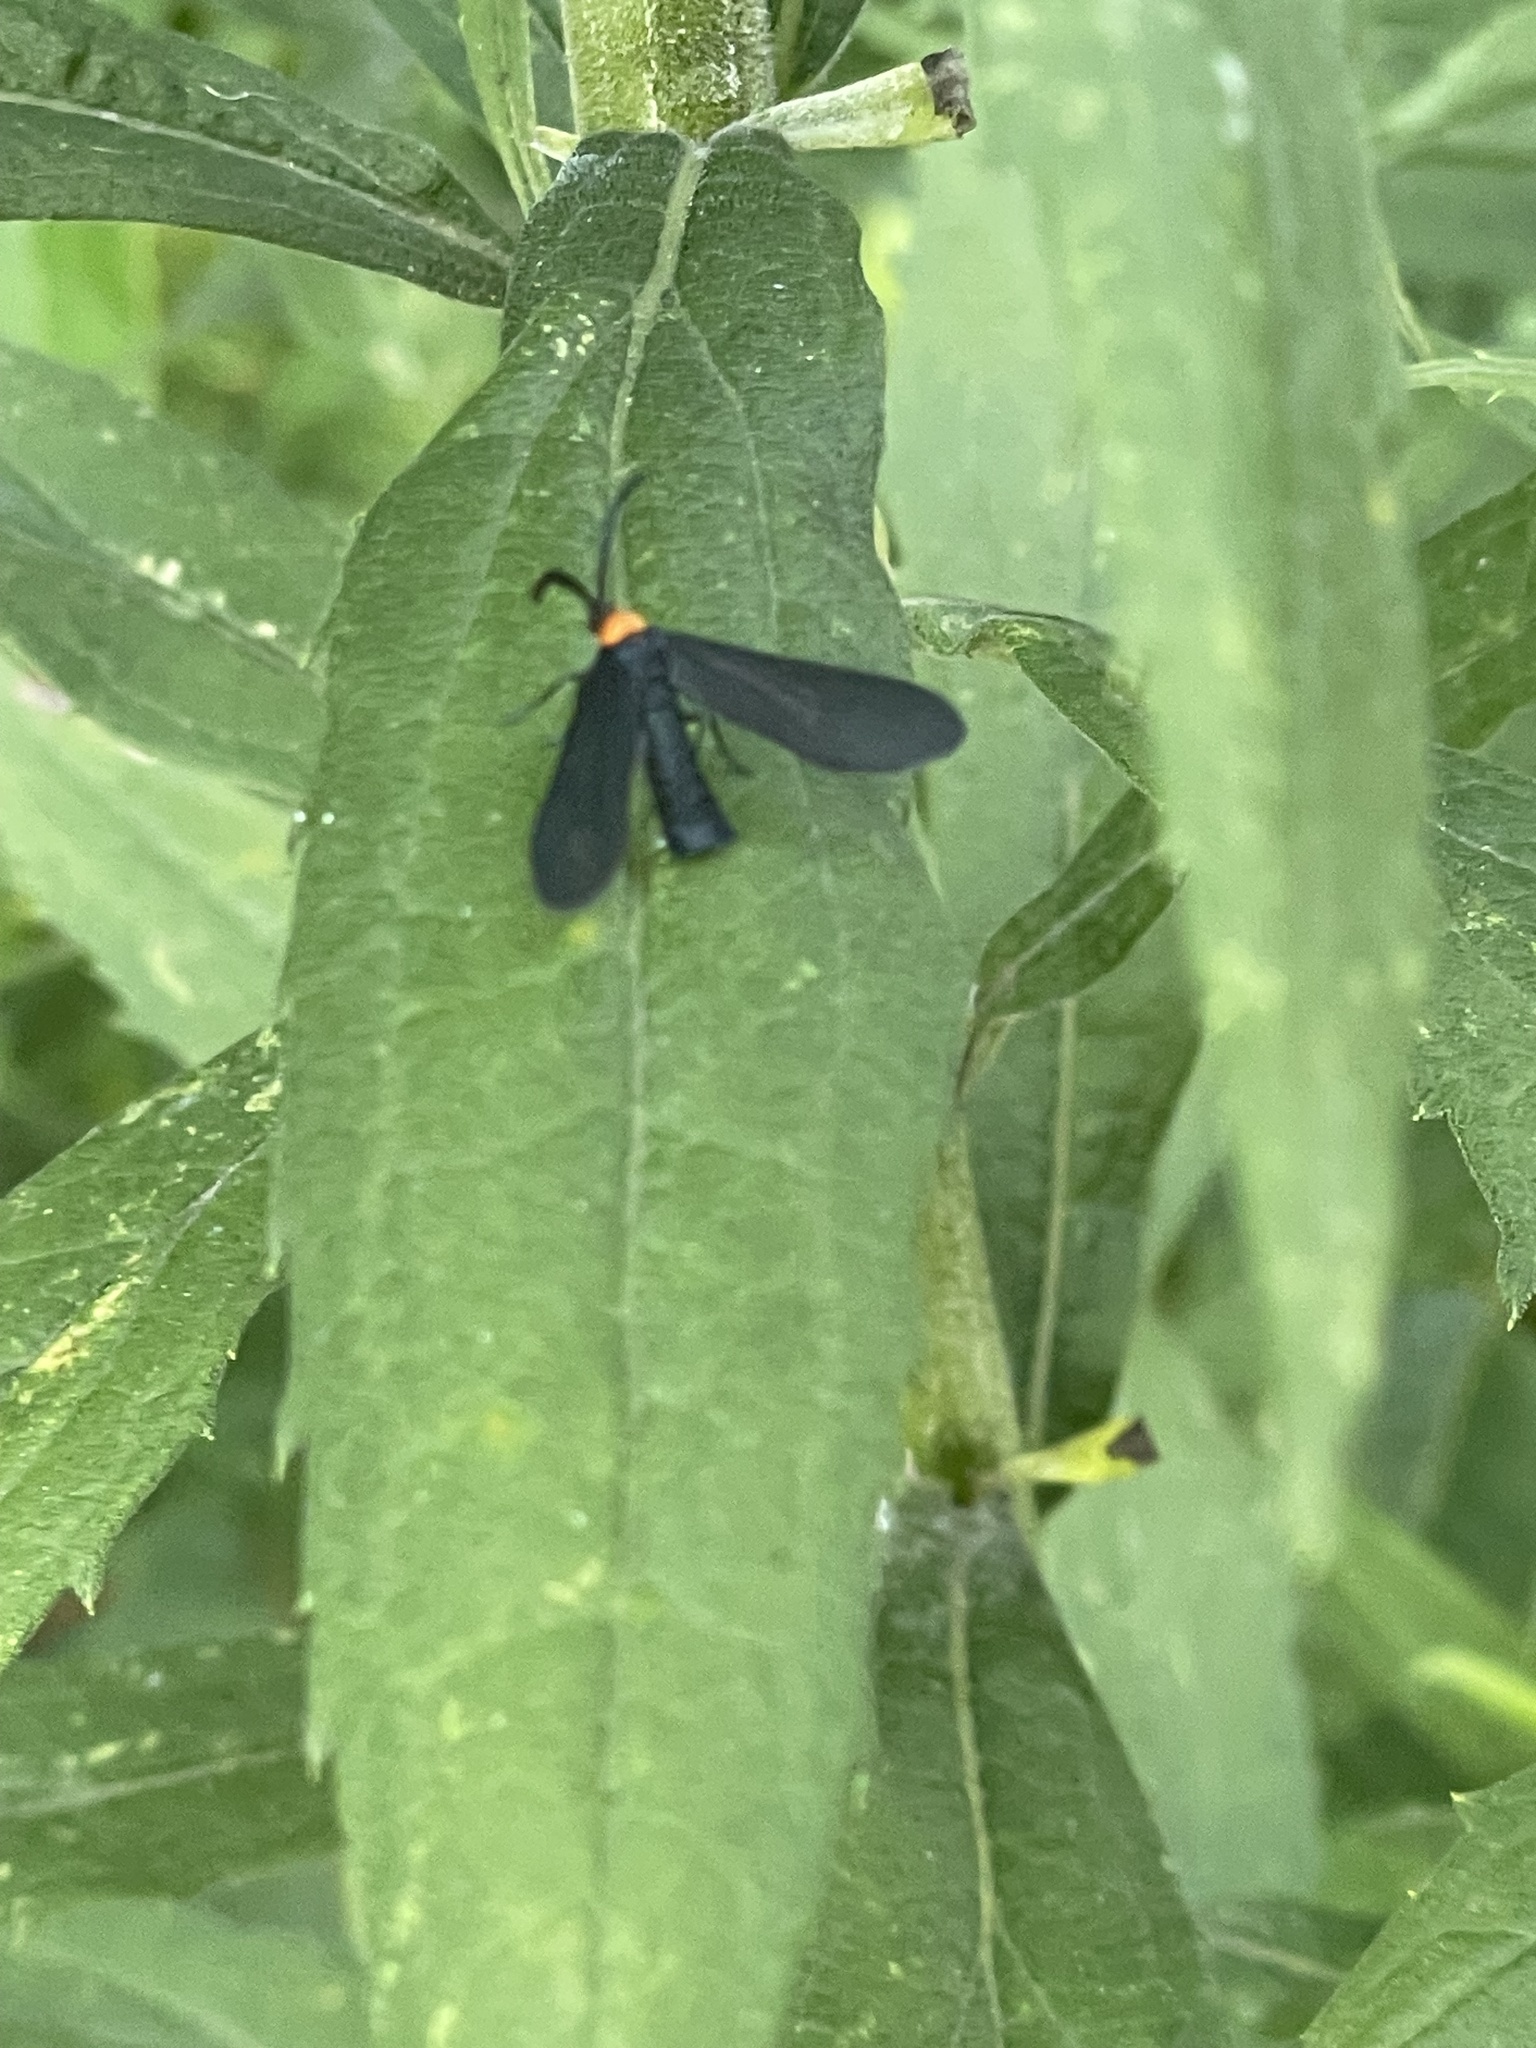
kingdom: Animalia
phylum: Arthropoda
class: Insecta
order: Lepidoptera
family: Zygaenidae
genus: Harrisina
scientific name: Harrisina americana
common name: Grapeleaf skeletonizer moth
